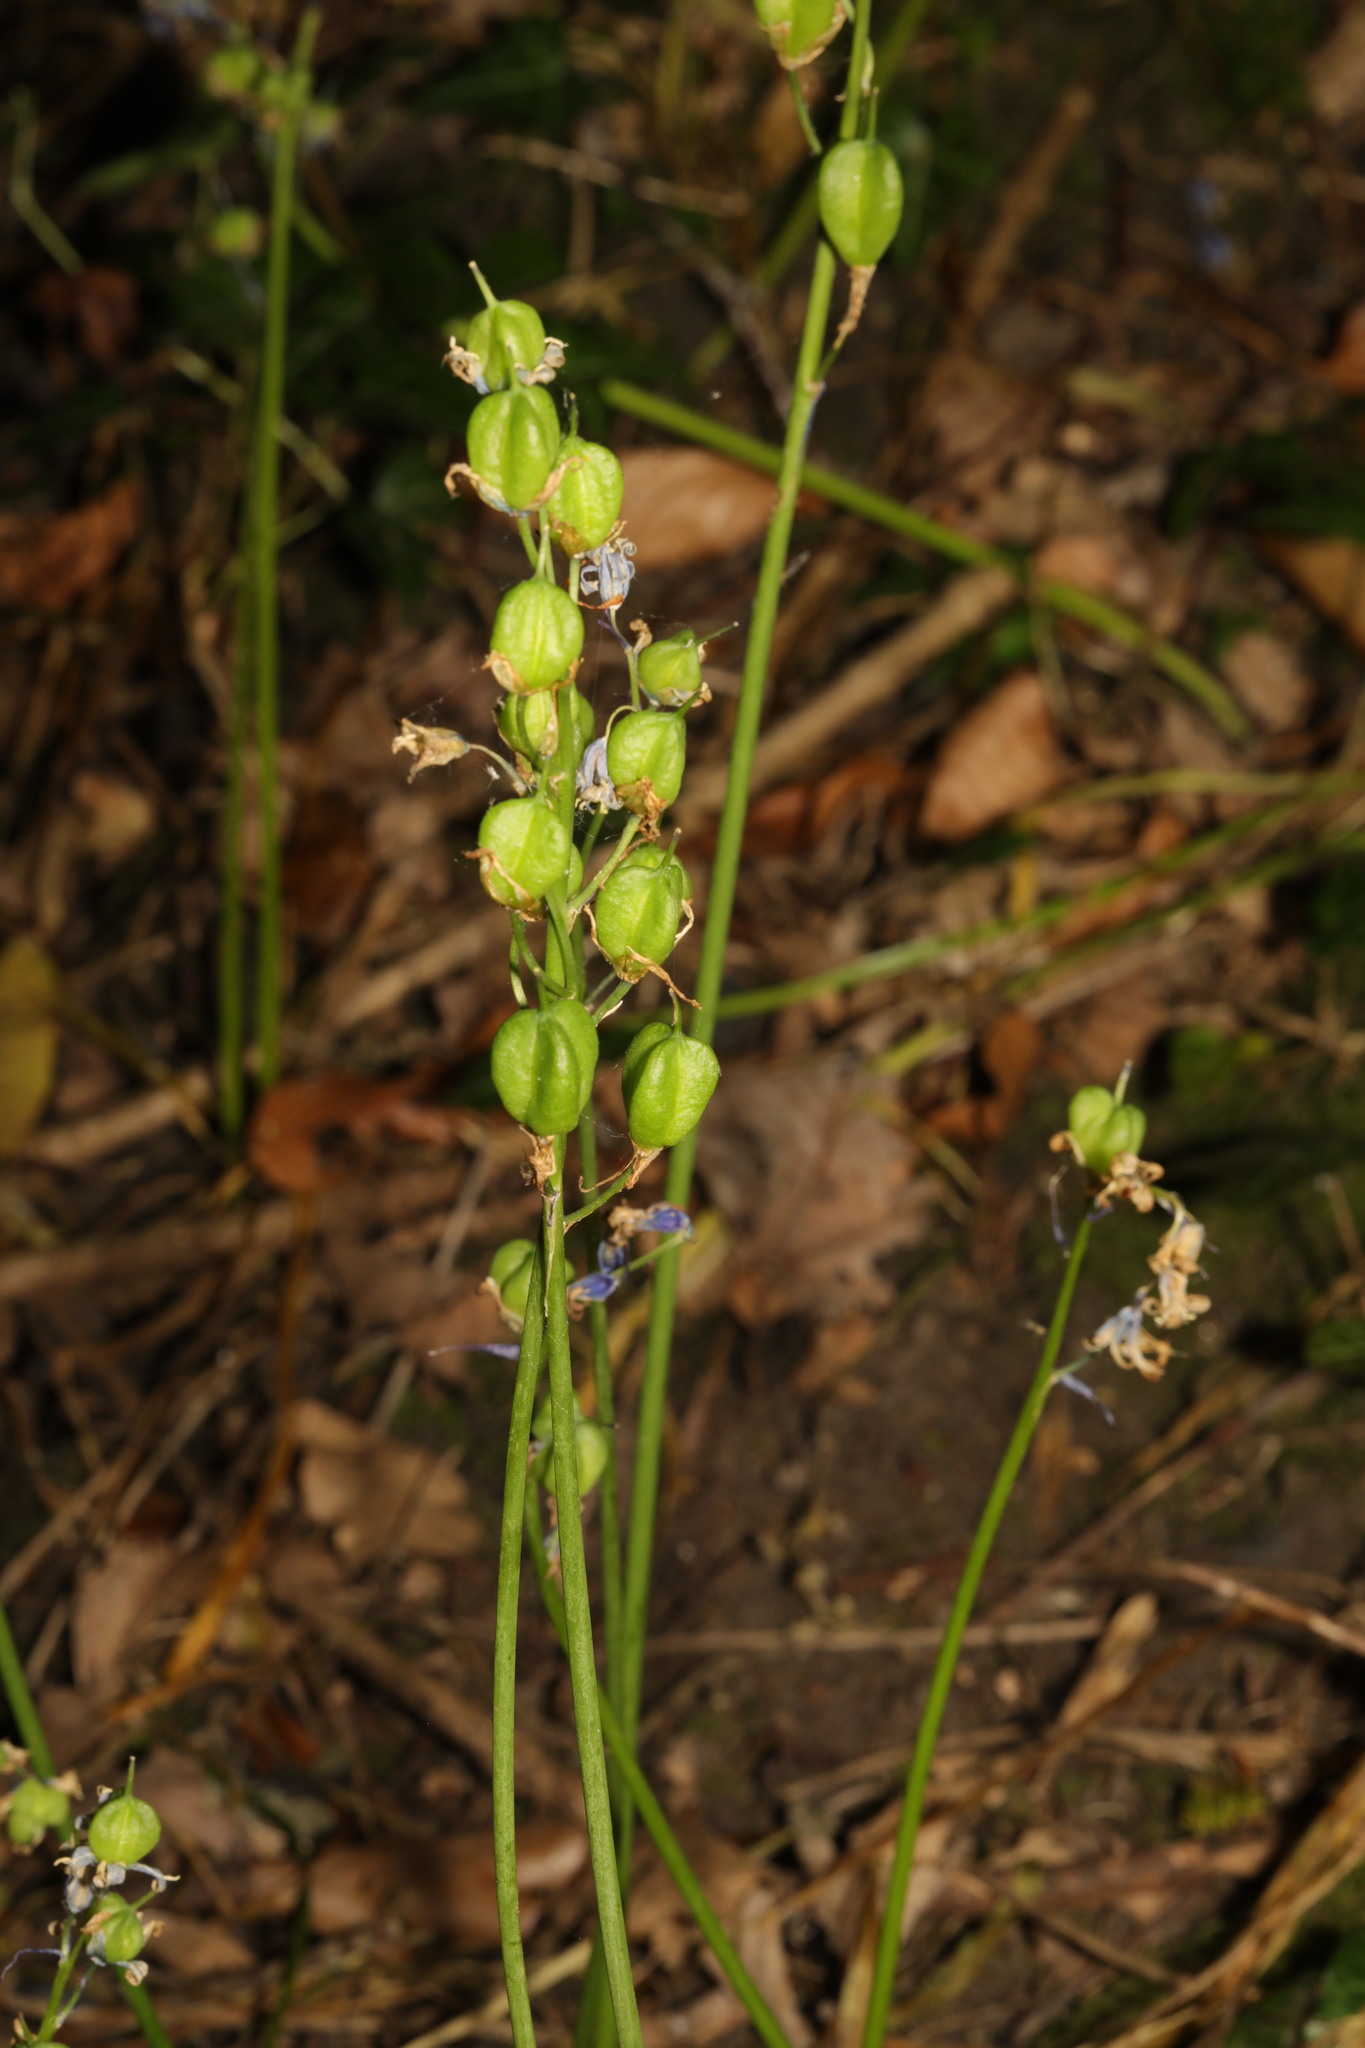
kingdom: Plantae
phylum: Tracheophyta
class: Liliopsida
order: Asparagales
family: Asparagaceae
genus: Hyacinthoides
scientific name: Hyacinthoides non-scripta
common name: Bluebell
